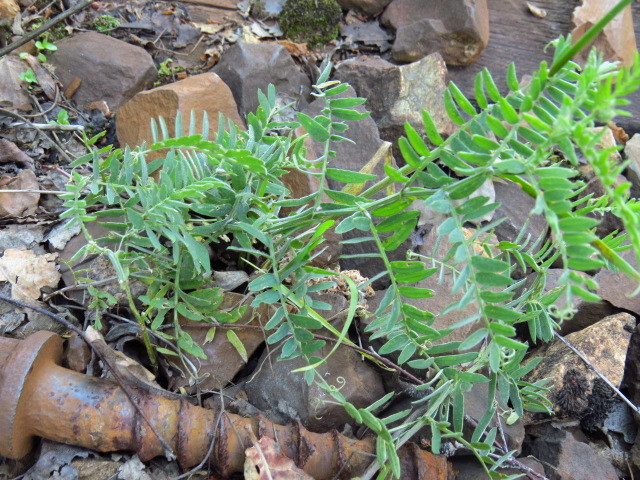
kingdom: Plantae
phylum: Tracheophyta
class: Magnoliopsida
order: Fabales
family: Fabaceae
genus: Vicia
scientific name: Vicia cracca
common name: Bird vetch
